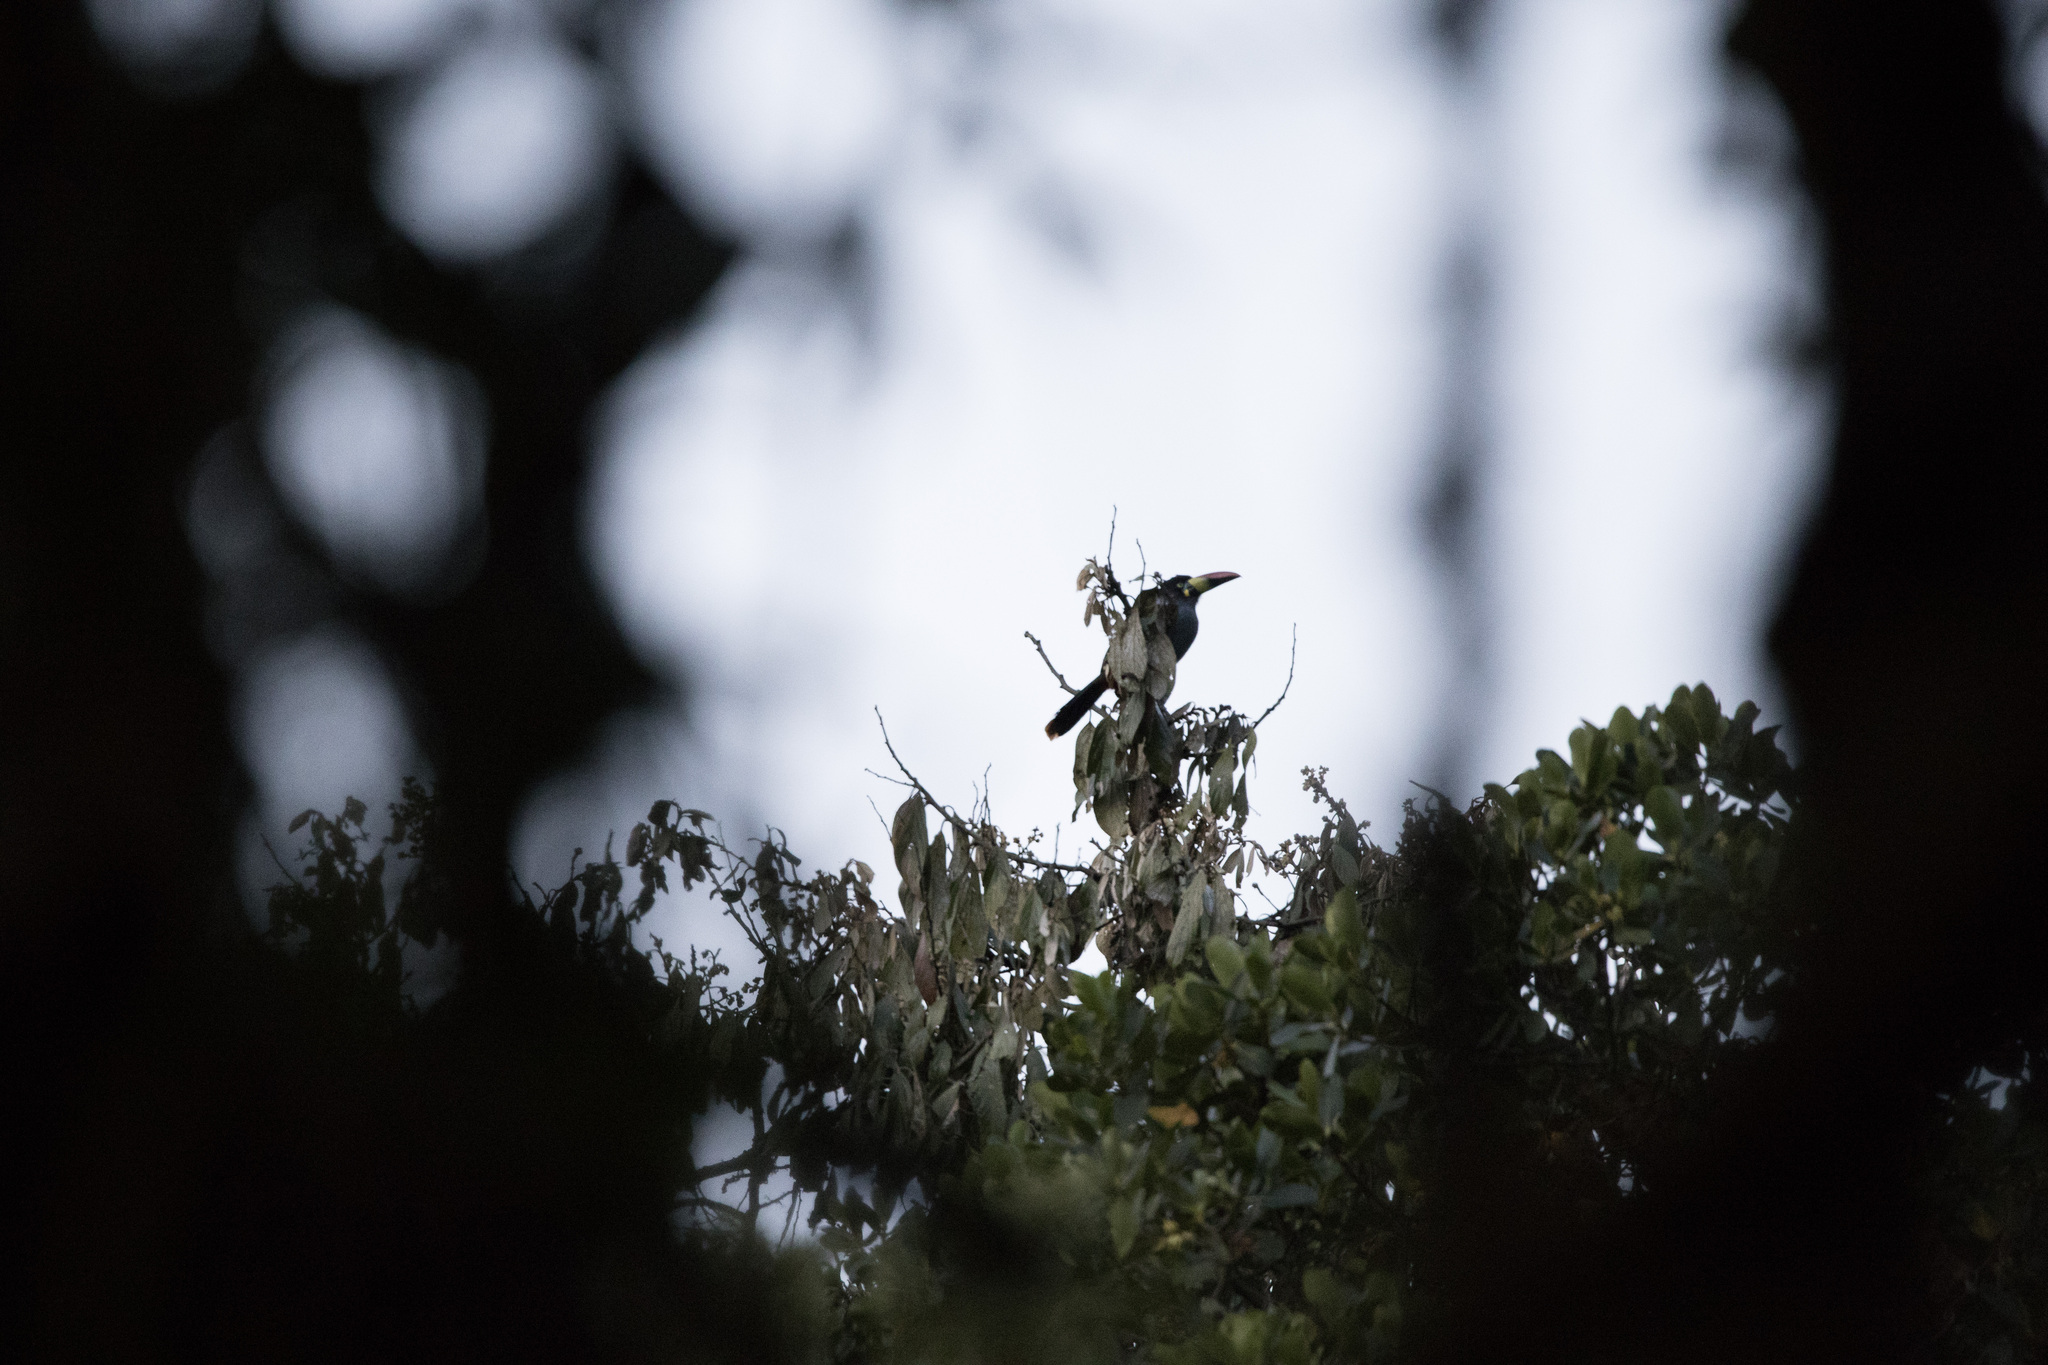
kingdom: Animalia
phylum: Chordata
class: Aves
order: Piciformes
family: Ramphastidae
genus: Andigena
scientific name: Andigena hypoglauca
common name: Grey-breasted mountain toucan
